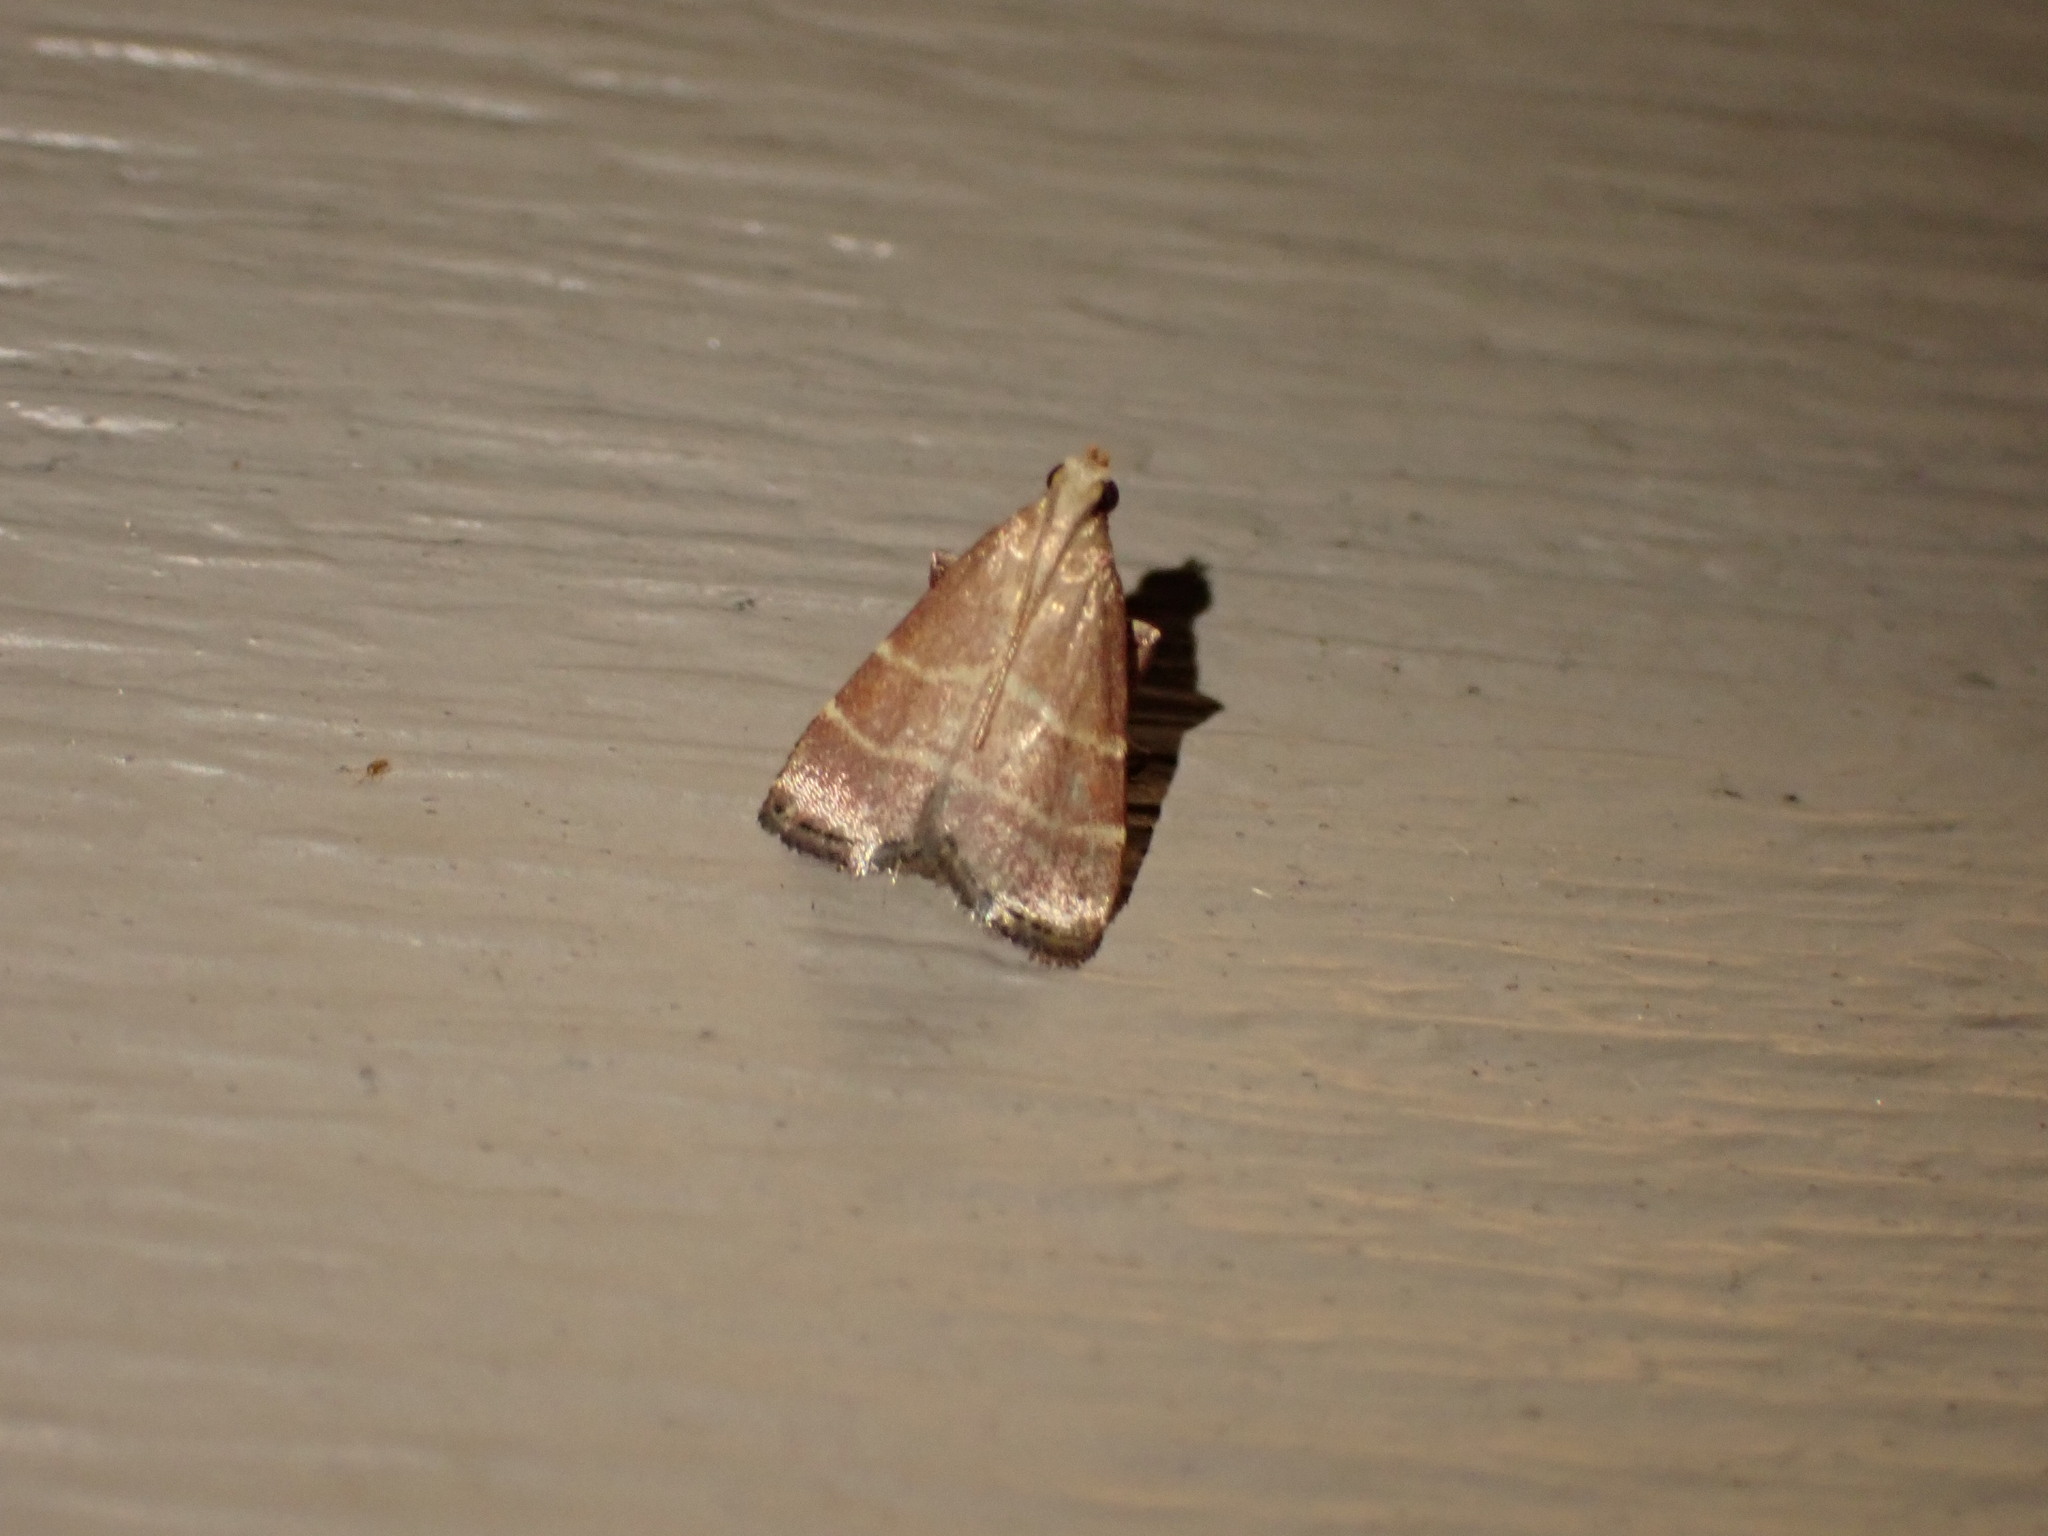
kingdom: Animalia
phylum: Arthropoda
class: Insecta
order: Lepidoptera
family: Pyralidae
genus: Arta
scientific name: Arta statalis
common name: Posturing arta moth
